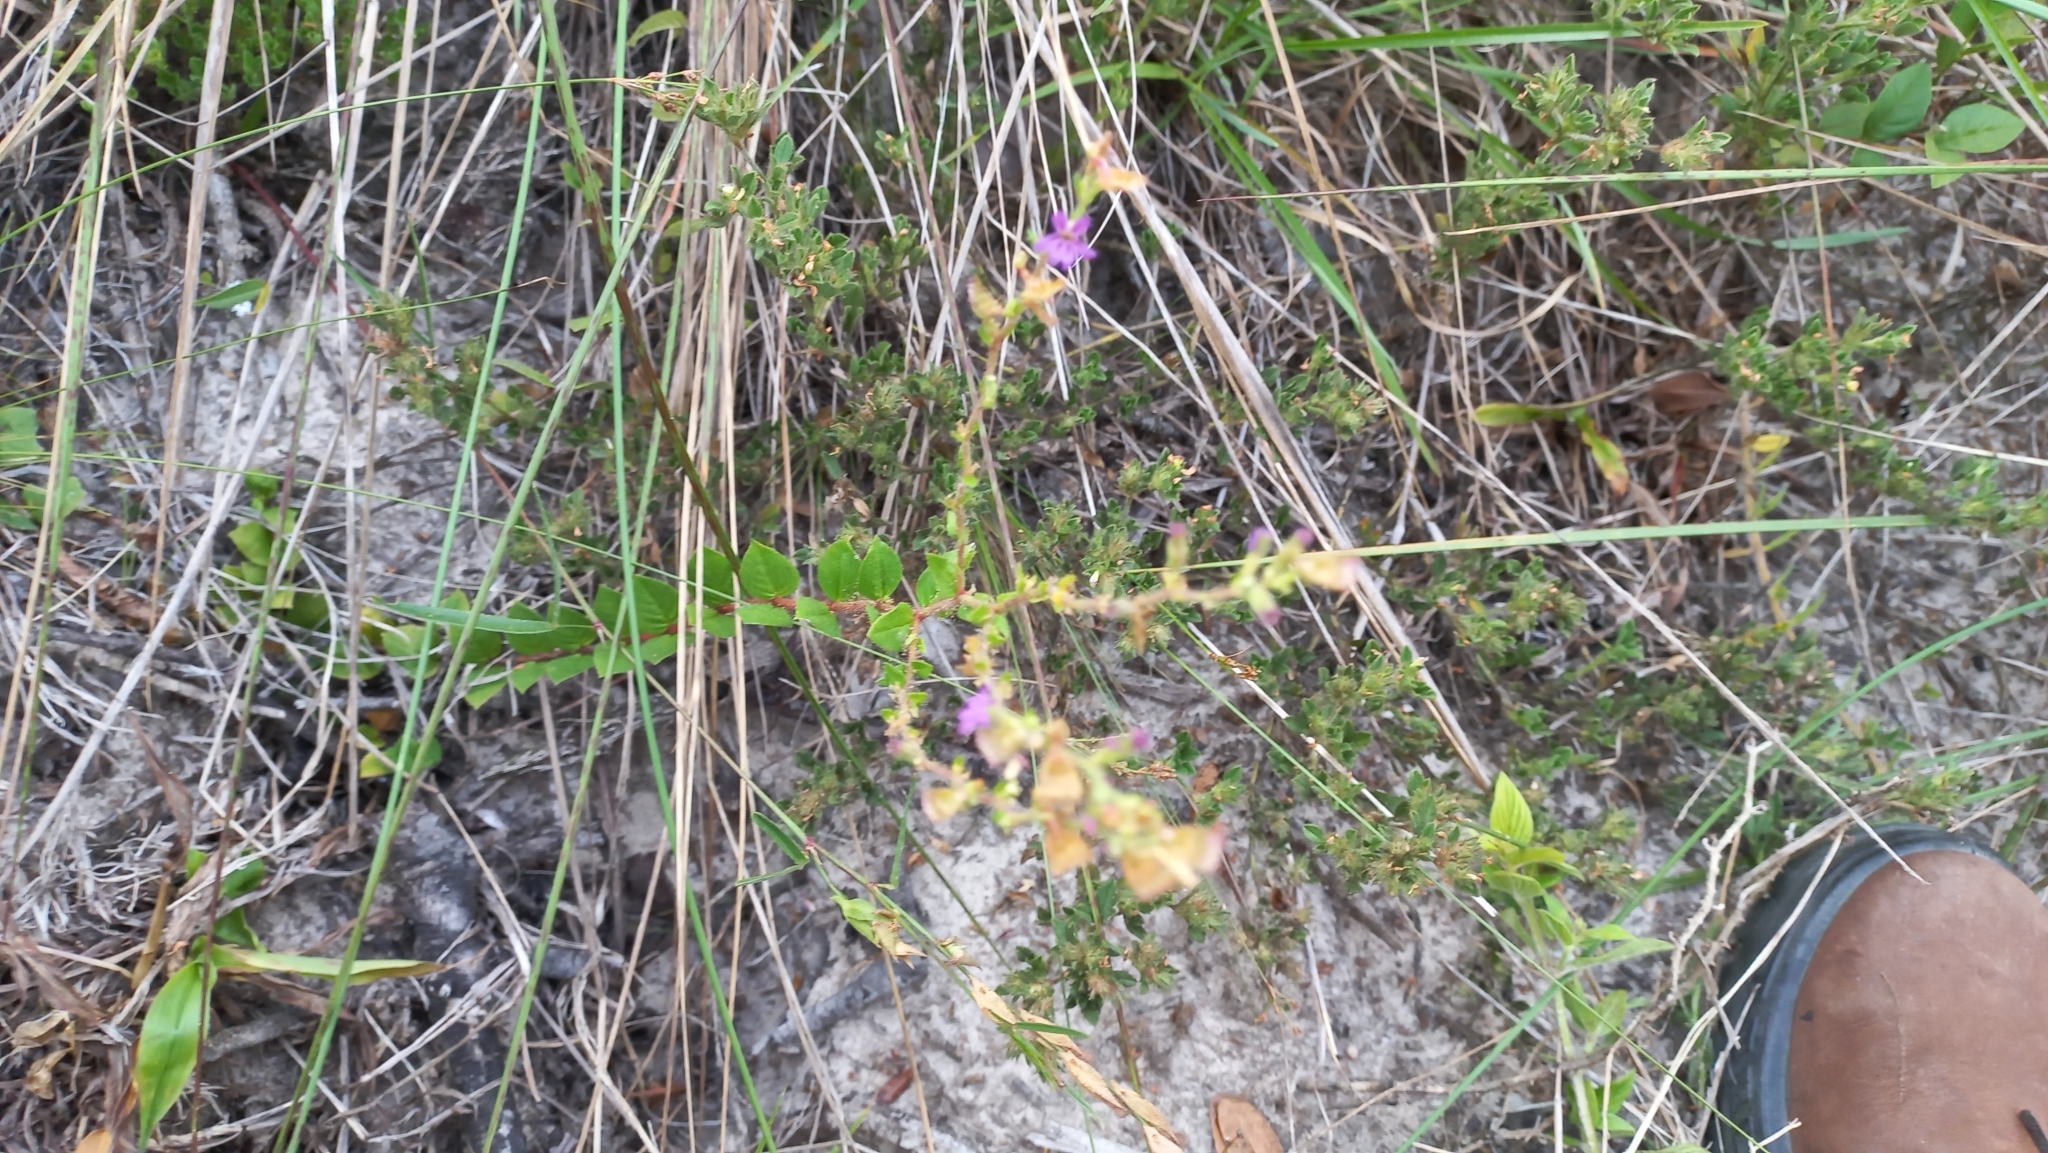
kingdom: Plantae
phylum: Tracheophyta
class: Magnoliopsida
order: Myrtales
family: Lythraceae
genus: Cuphea
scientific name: Cuphea calophylla
